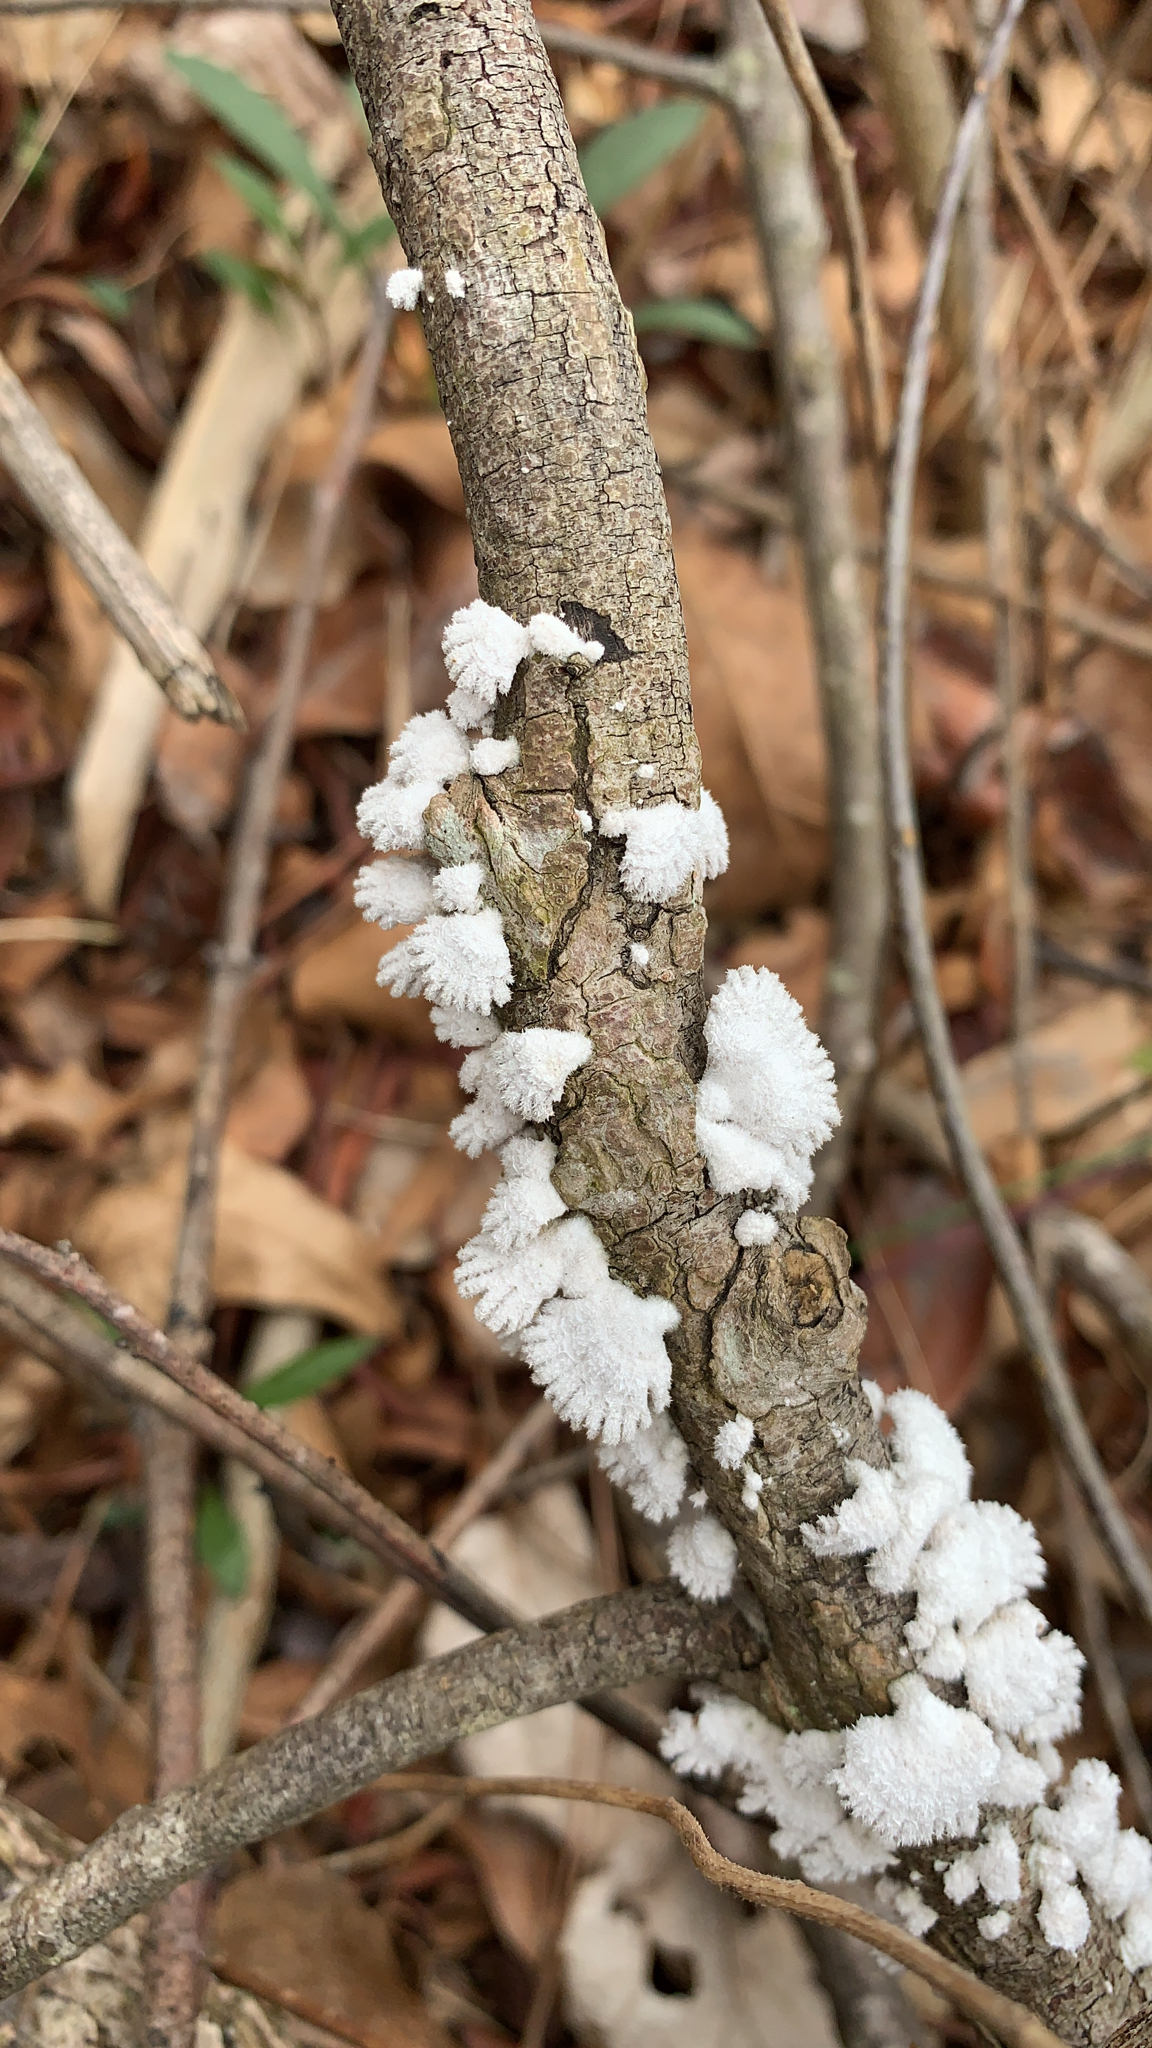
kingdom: Fungi
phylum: Basidiomycota
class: Agaricomycetes
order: Agaricales
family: Schizophyllaceae
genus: Schizophyllum
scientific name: Schizophyllum commune
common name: Common porecrust
